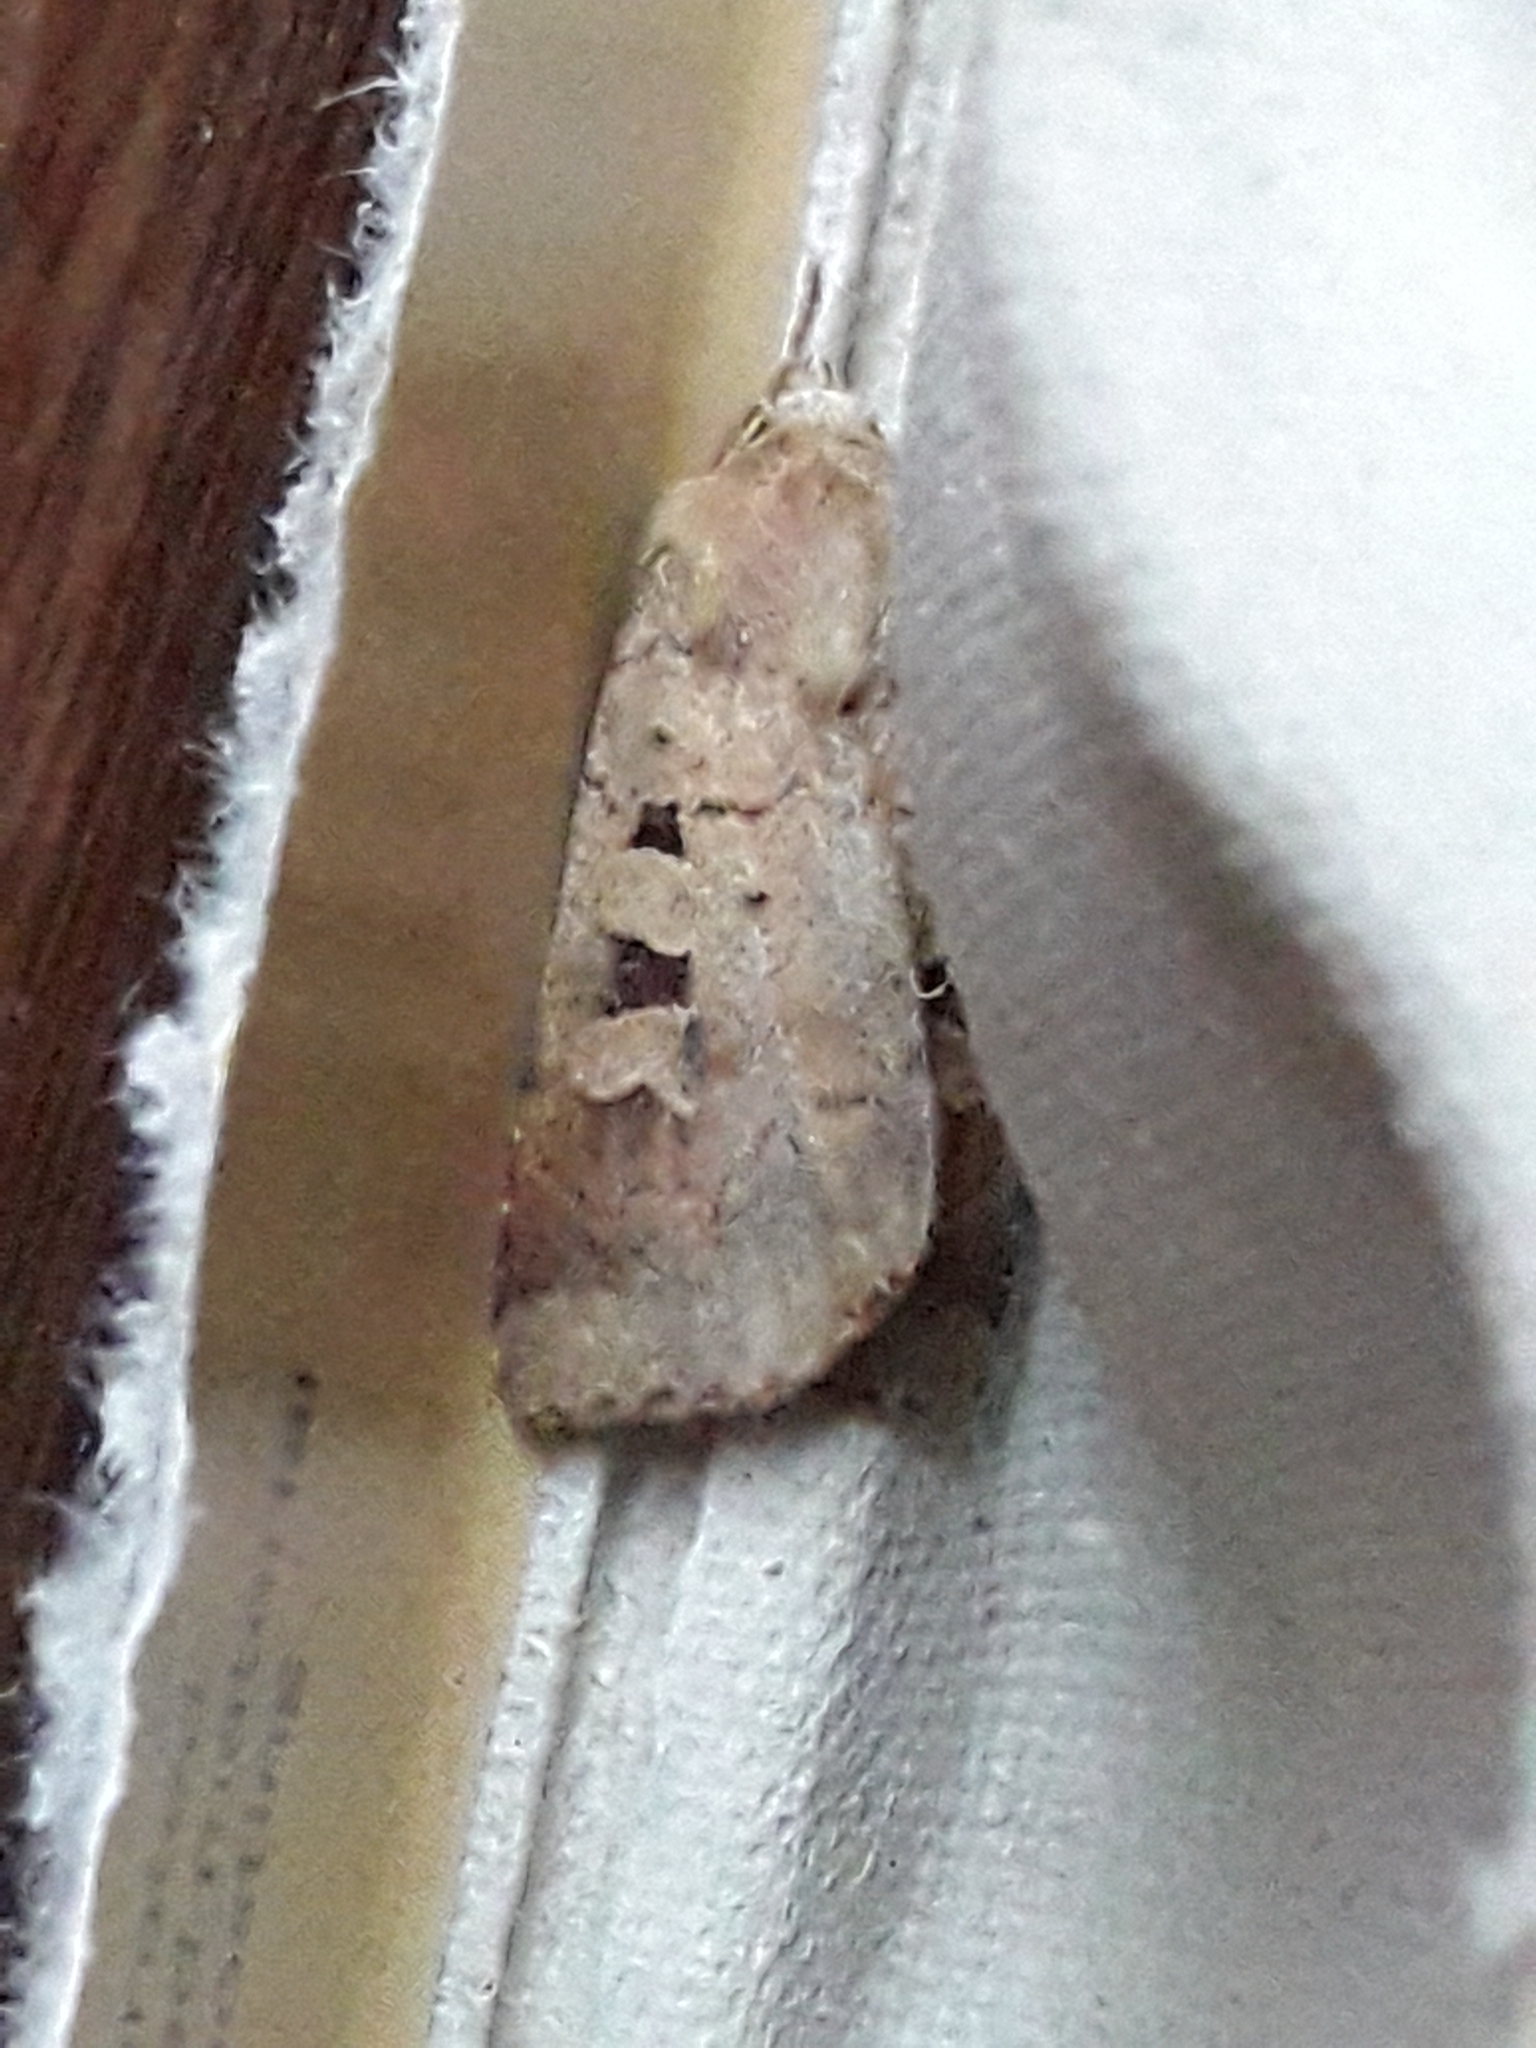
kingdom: Animalia
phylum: Arthropoda
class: Insecta
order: Lepidoptera
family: Noctuidae
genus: Diarsia
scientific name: Diarsia mendica
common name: Ingrailed clay
